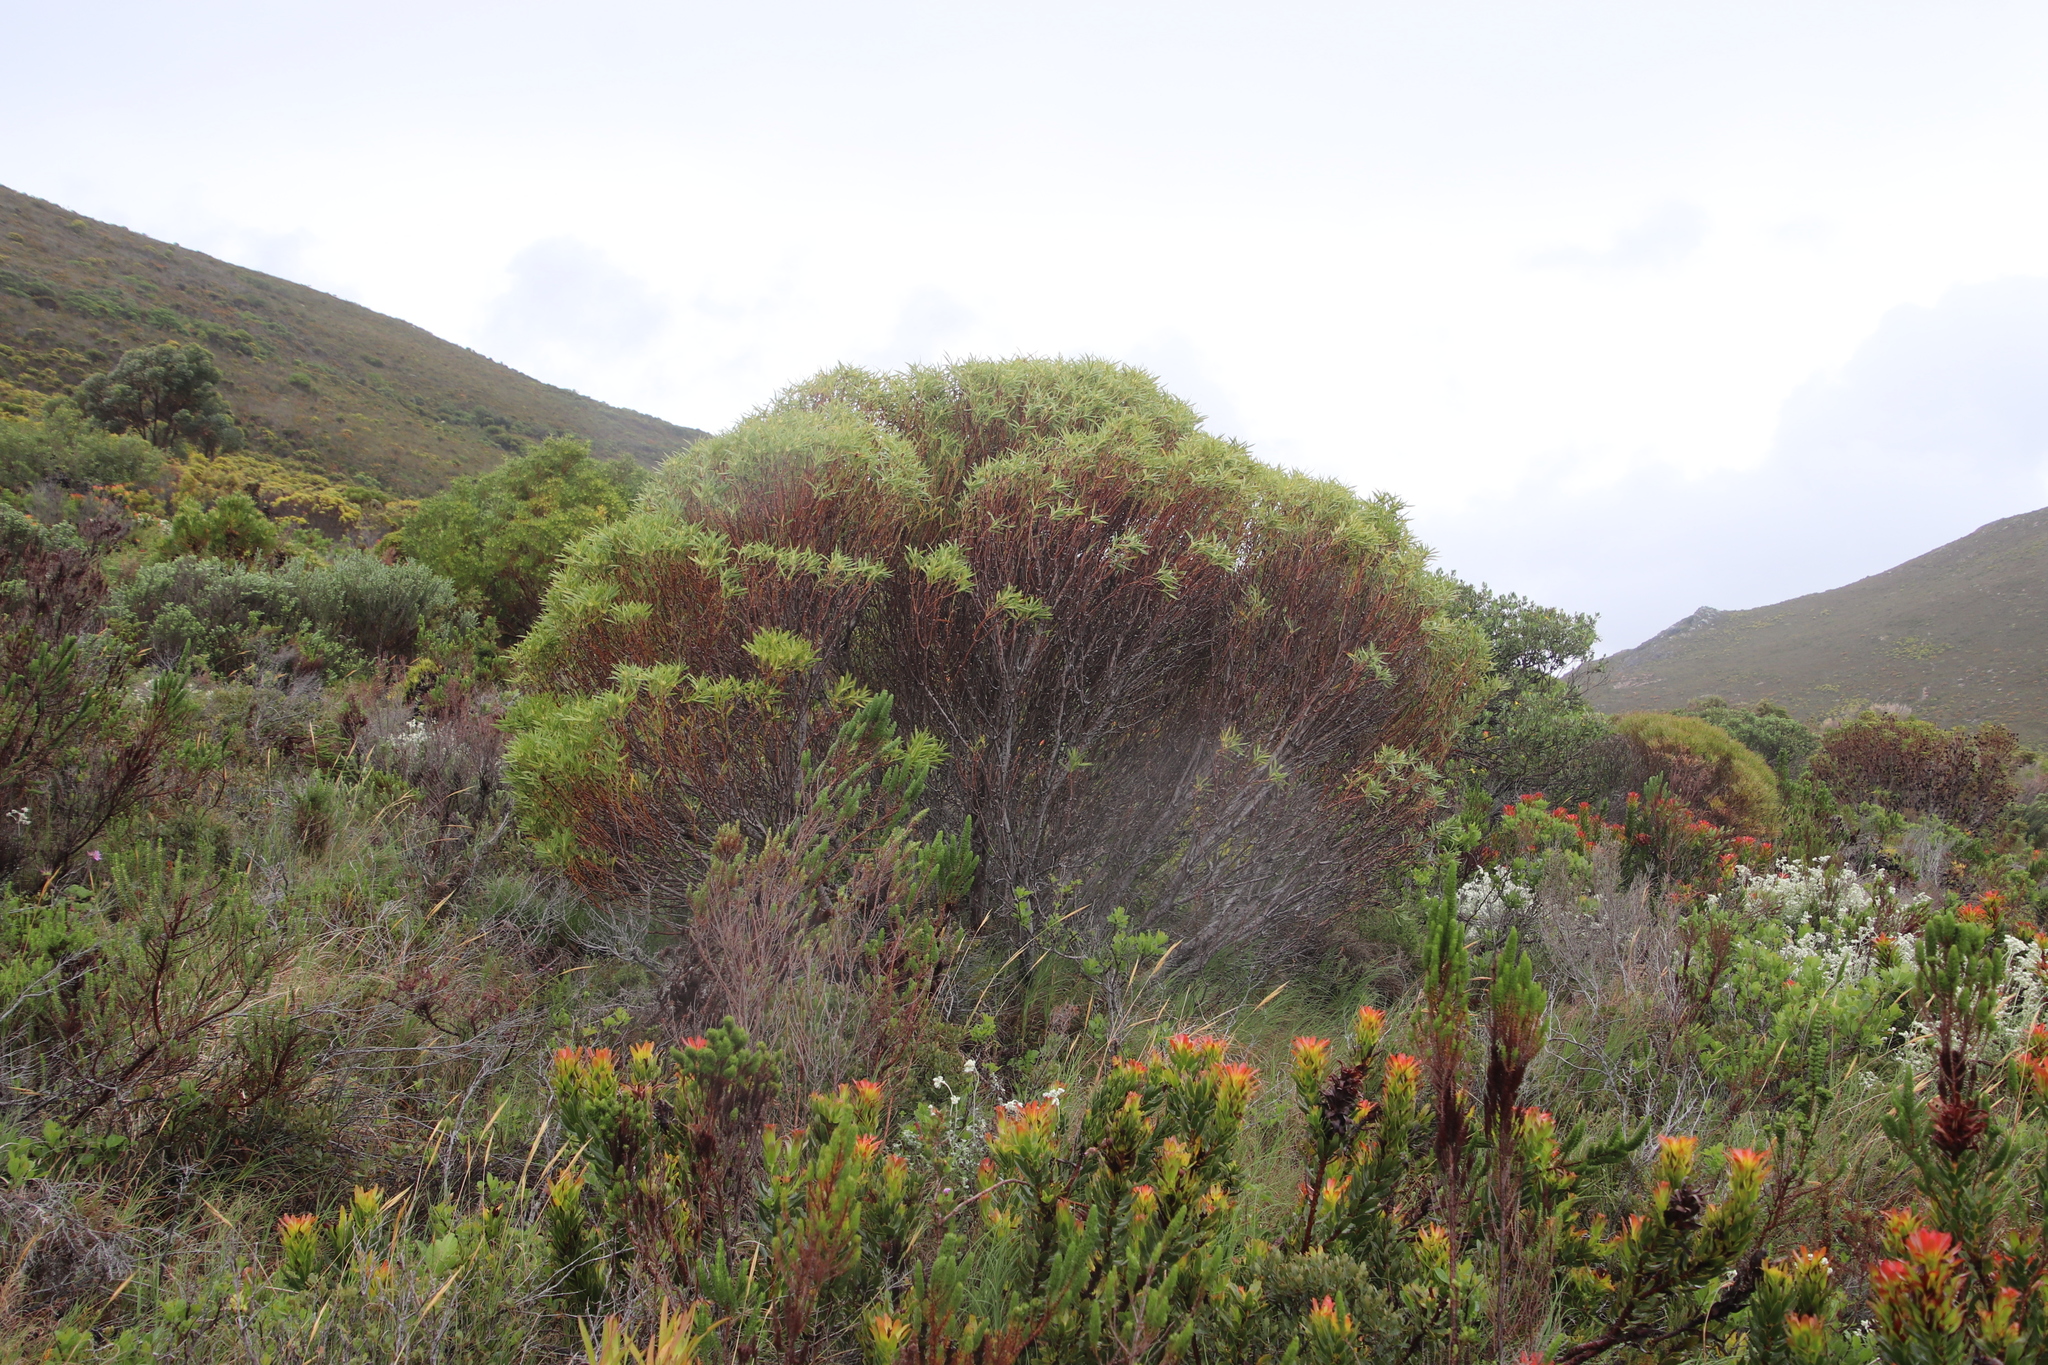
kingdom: Plantae
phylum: Tracheophyta
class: Magnoliopsida
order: Proteales
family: Proteaceae
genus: Leucadendron
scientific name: Leucadendron coniferum
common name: Dune conebush
